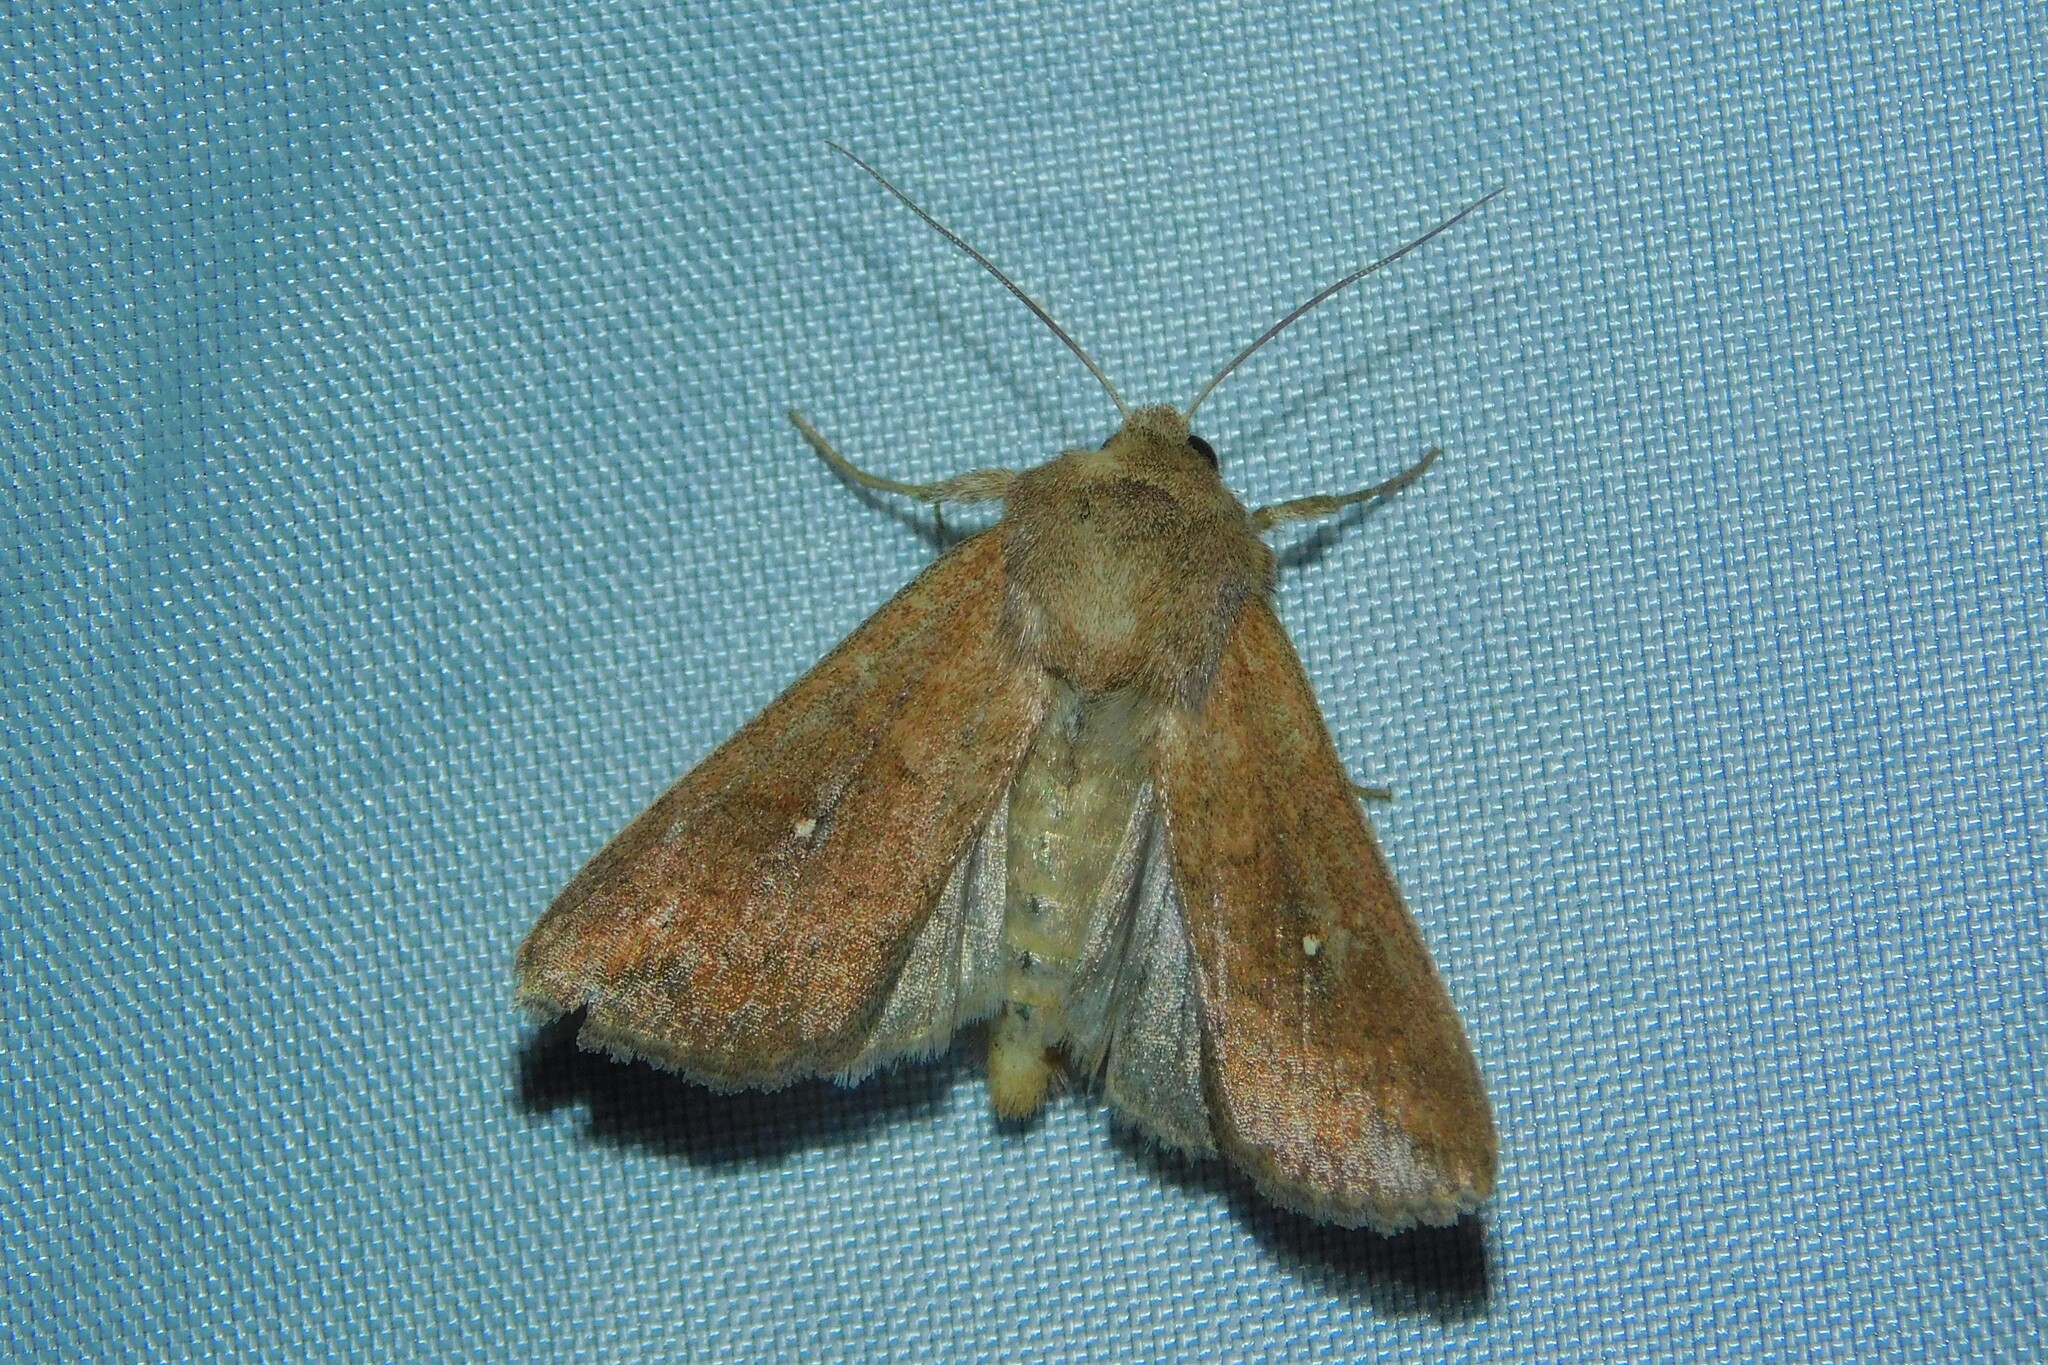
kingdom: Animalia
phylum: Arthropoda
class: Insecta
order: Lepidoptera
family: Noctuidae
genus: Mythimna
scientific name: Mythimna albipuncta
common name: White-point
